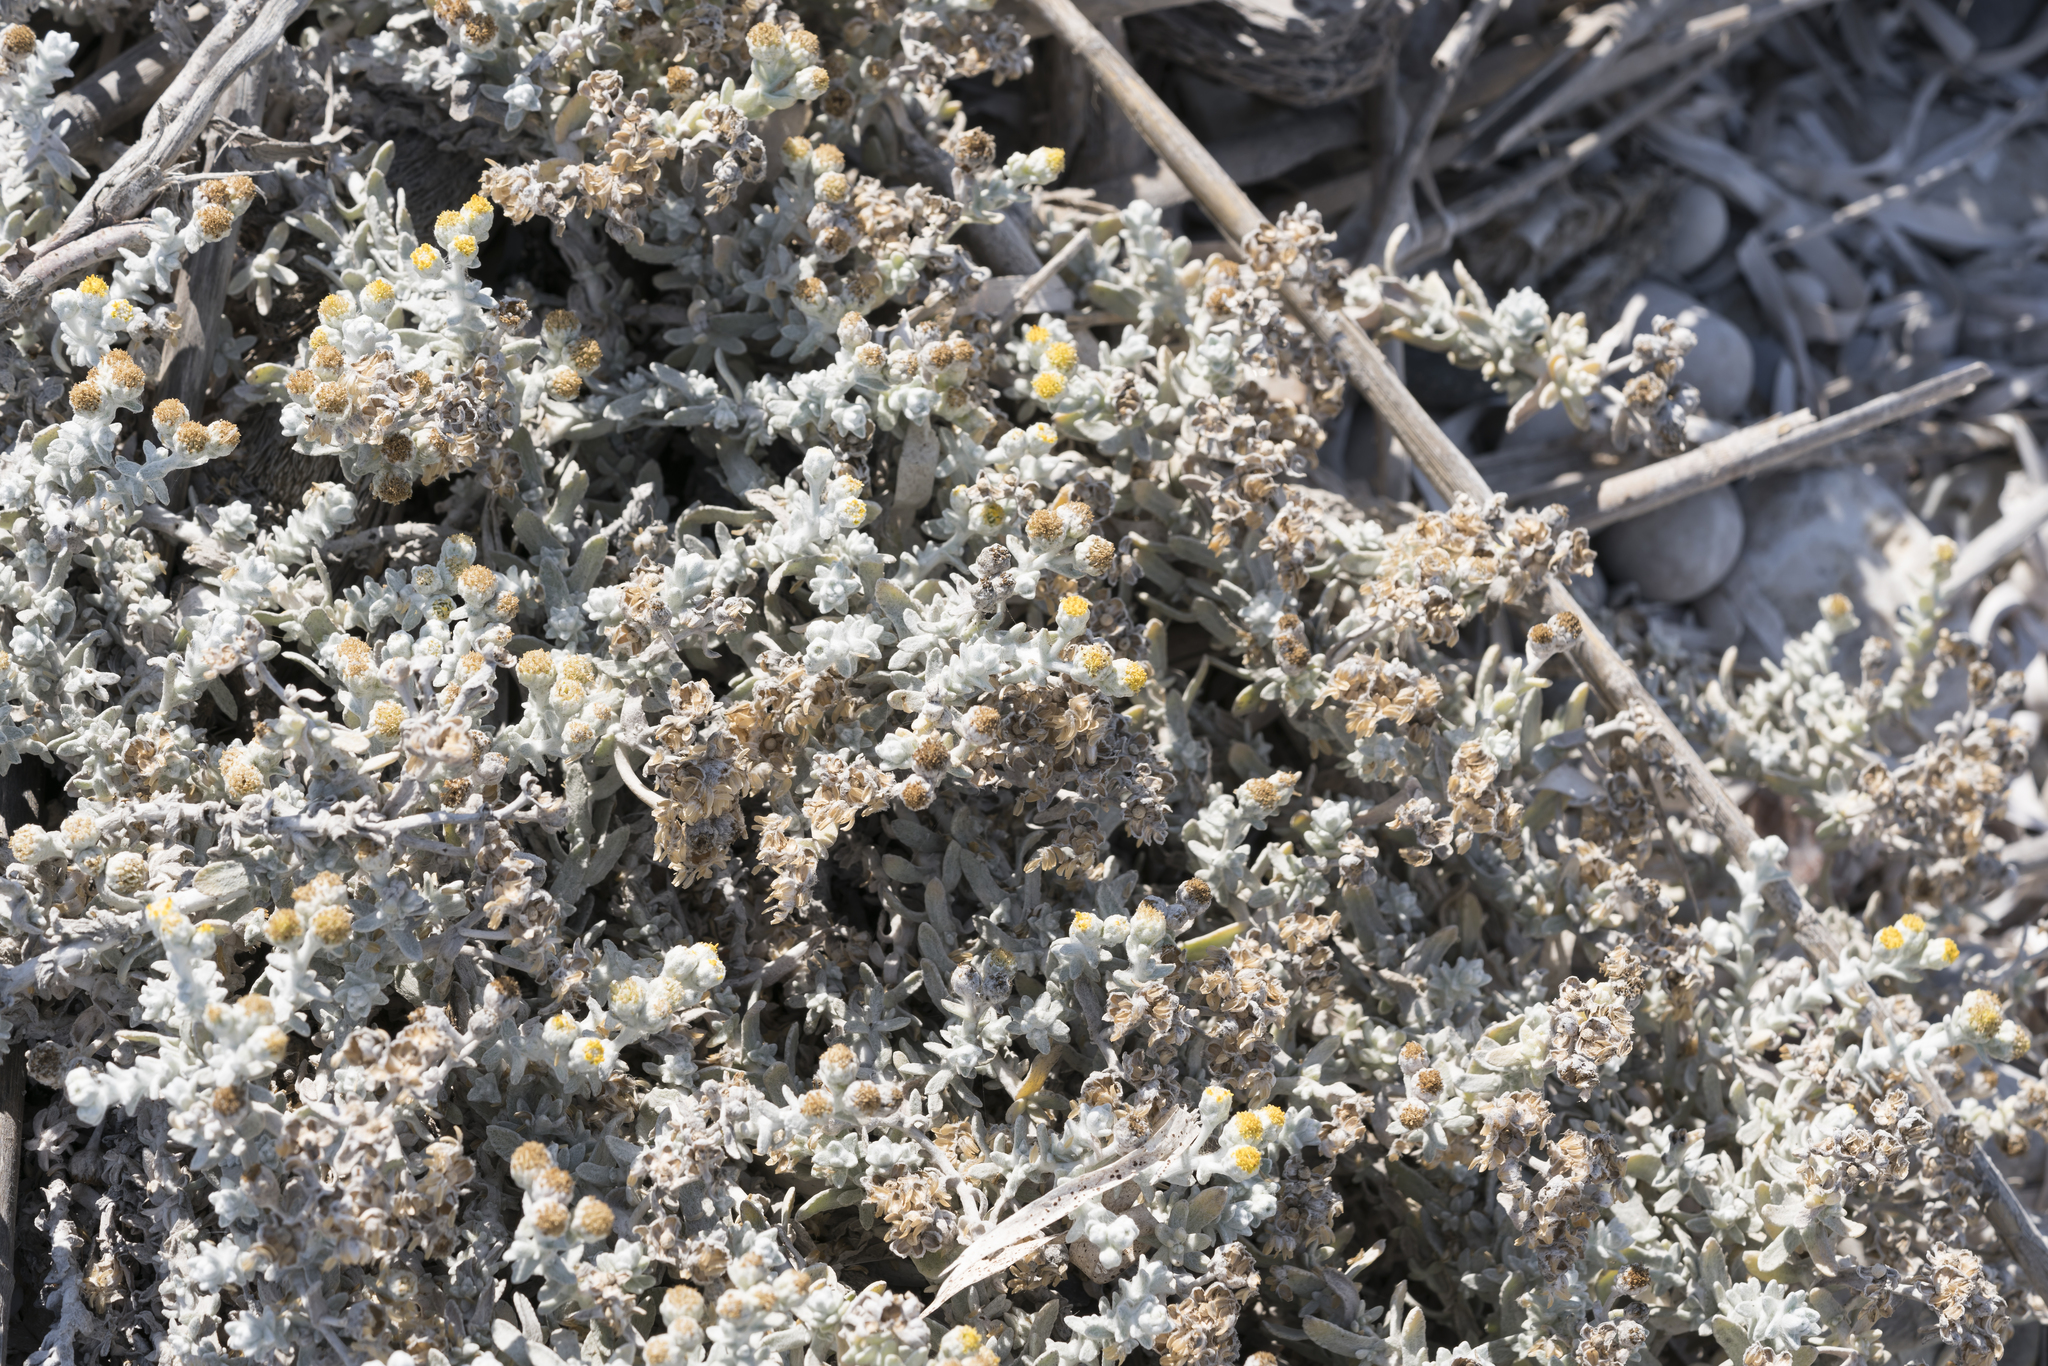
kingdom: Plantae
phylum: Tracheophyta
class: Magnoliopsida
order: Asterales
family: Asteraceae
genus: Achillea
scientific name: Achillea maritima
